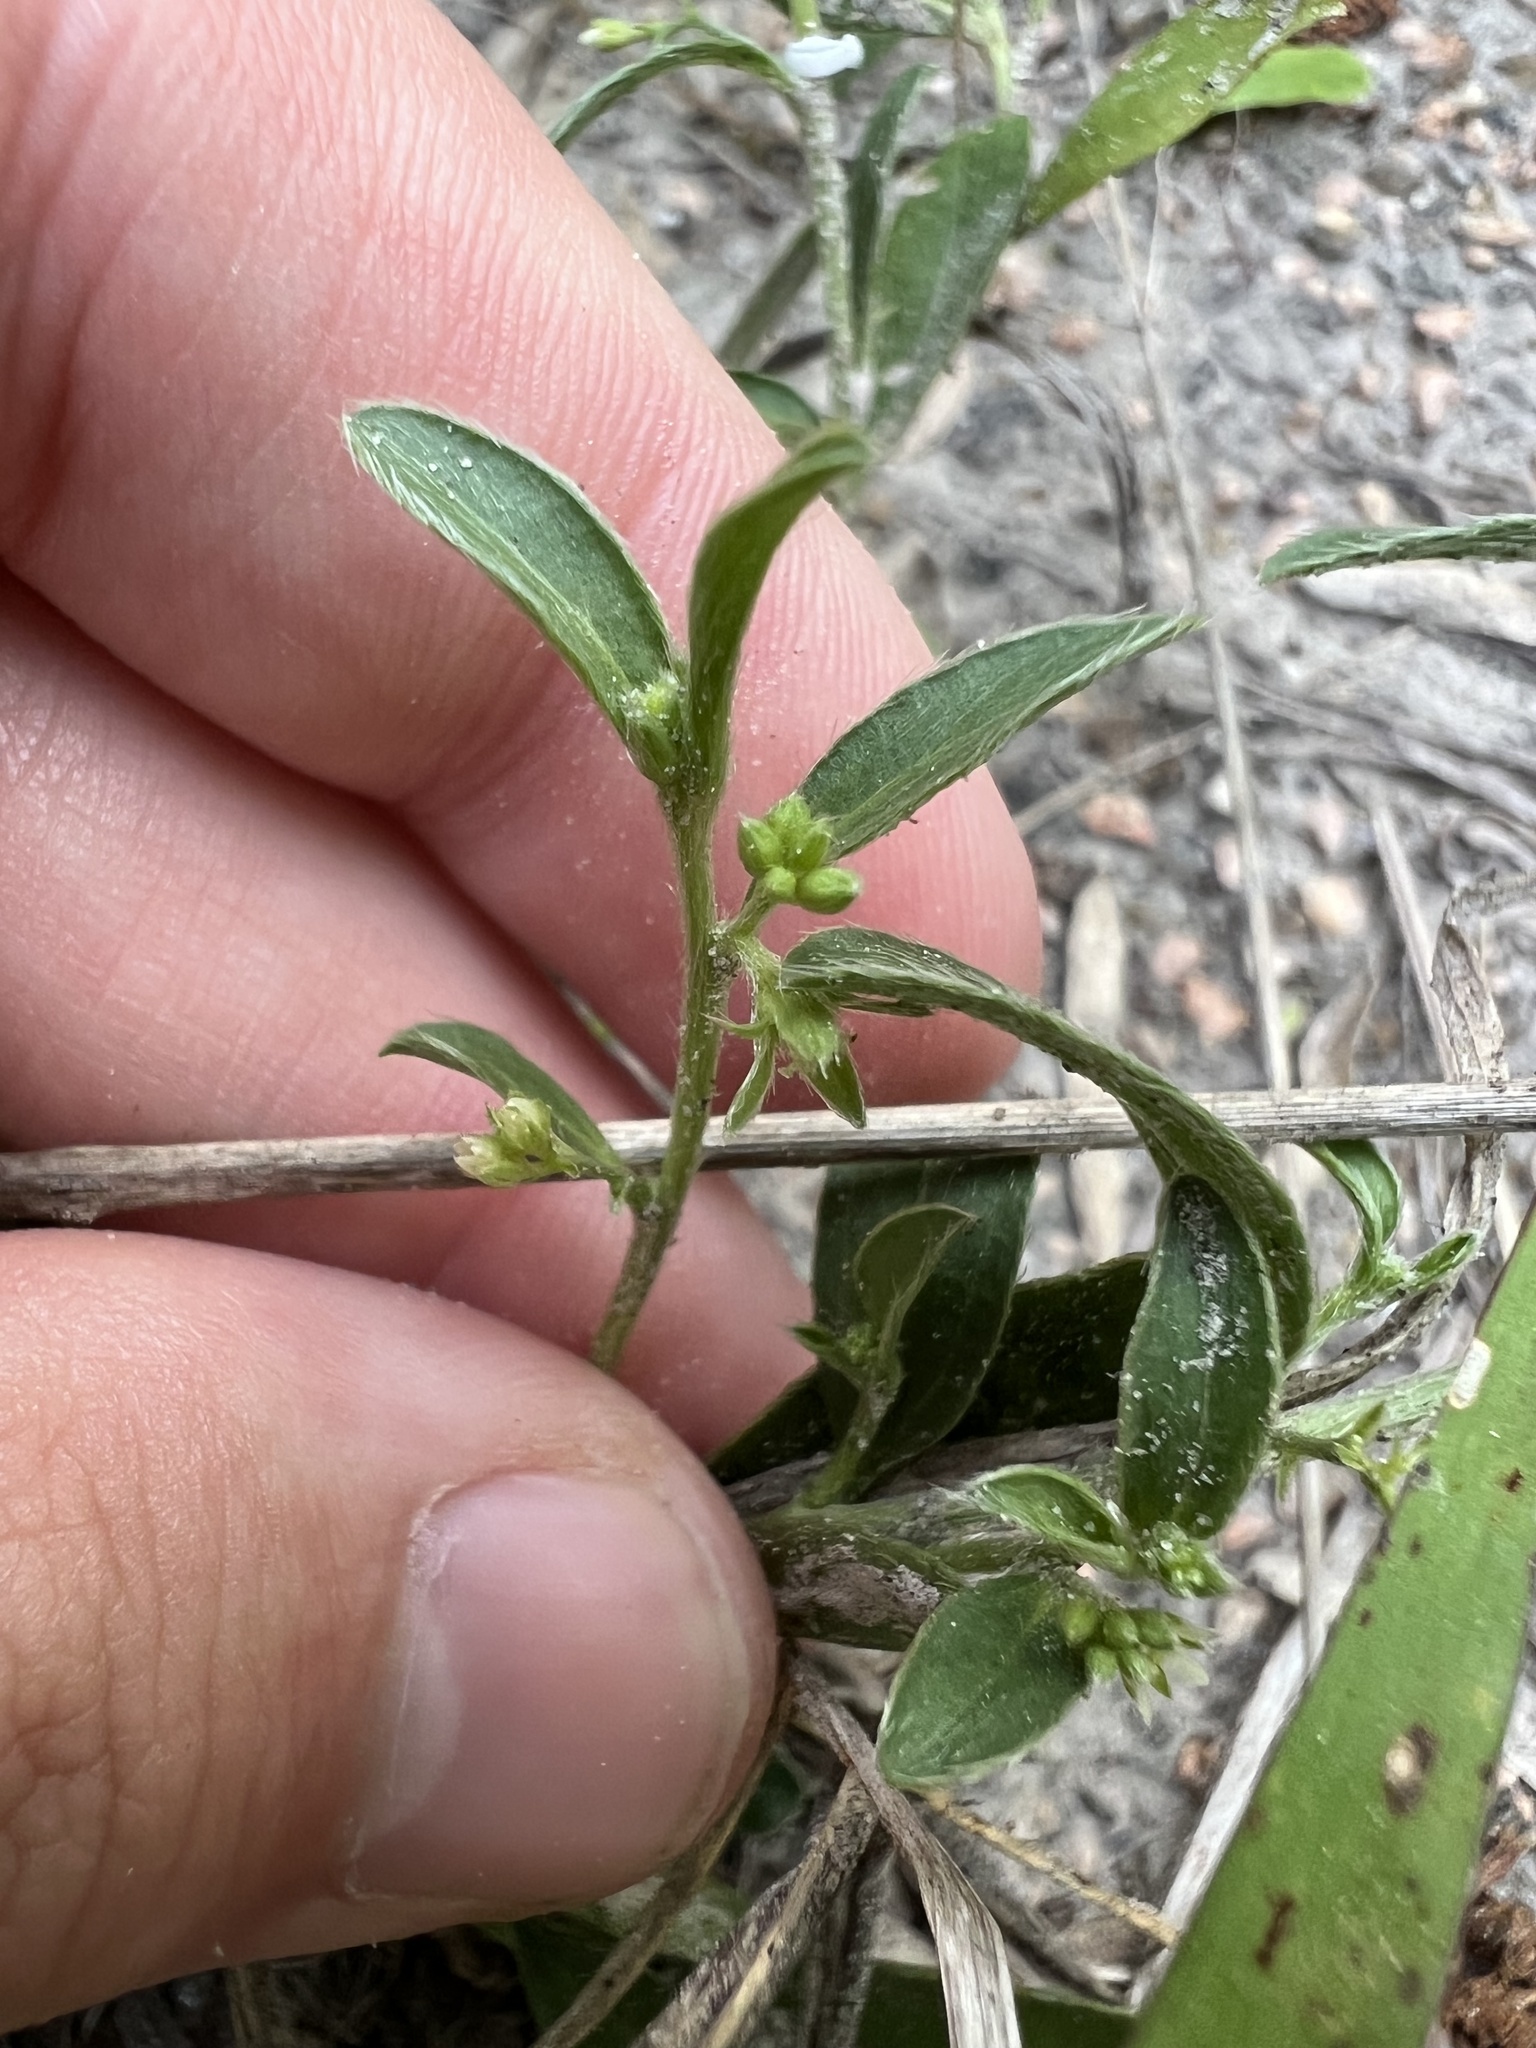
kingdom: Plantae
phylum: Tracheophyta
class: Magnoliopsida
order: Malpighiales
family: Euphorbiaceae
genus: Ditaxis
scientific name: Ditaxis humilis
